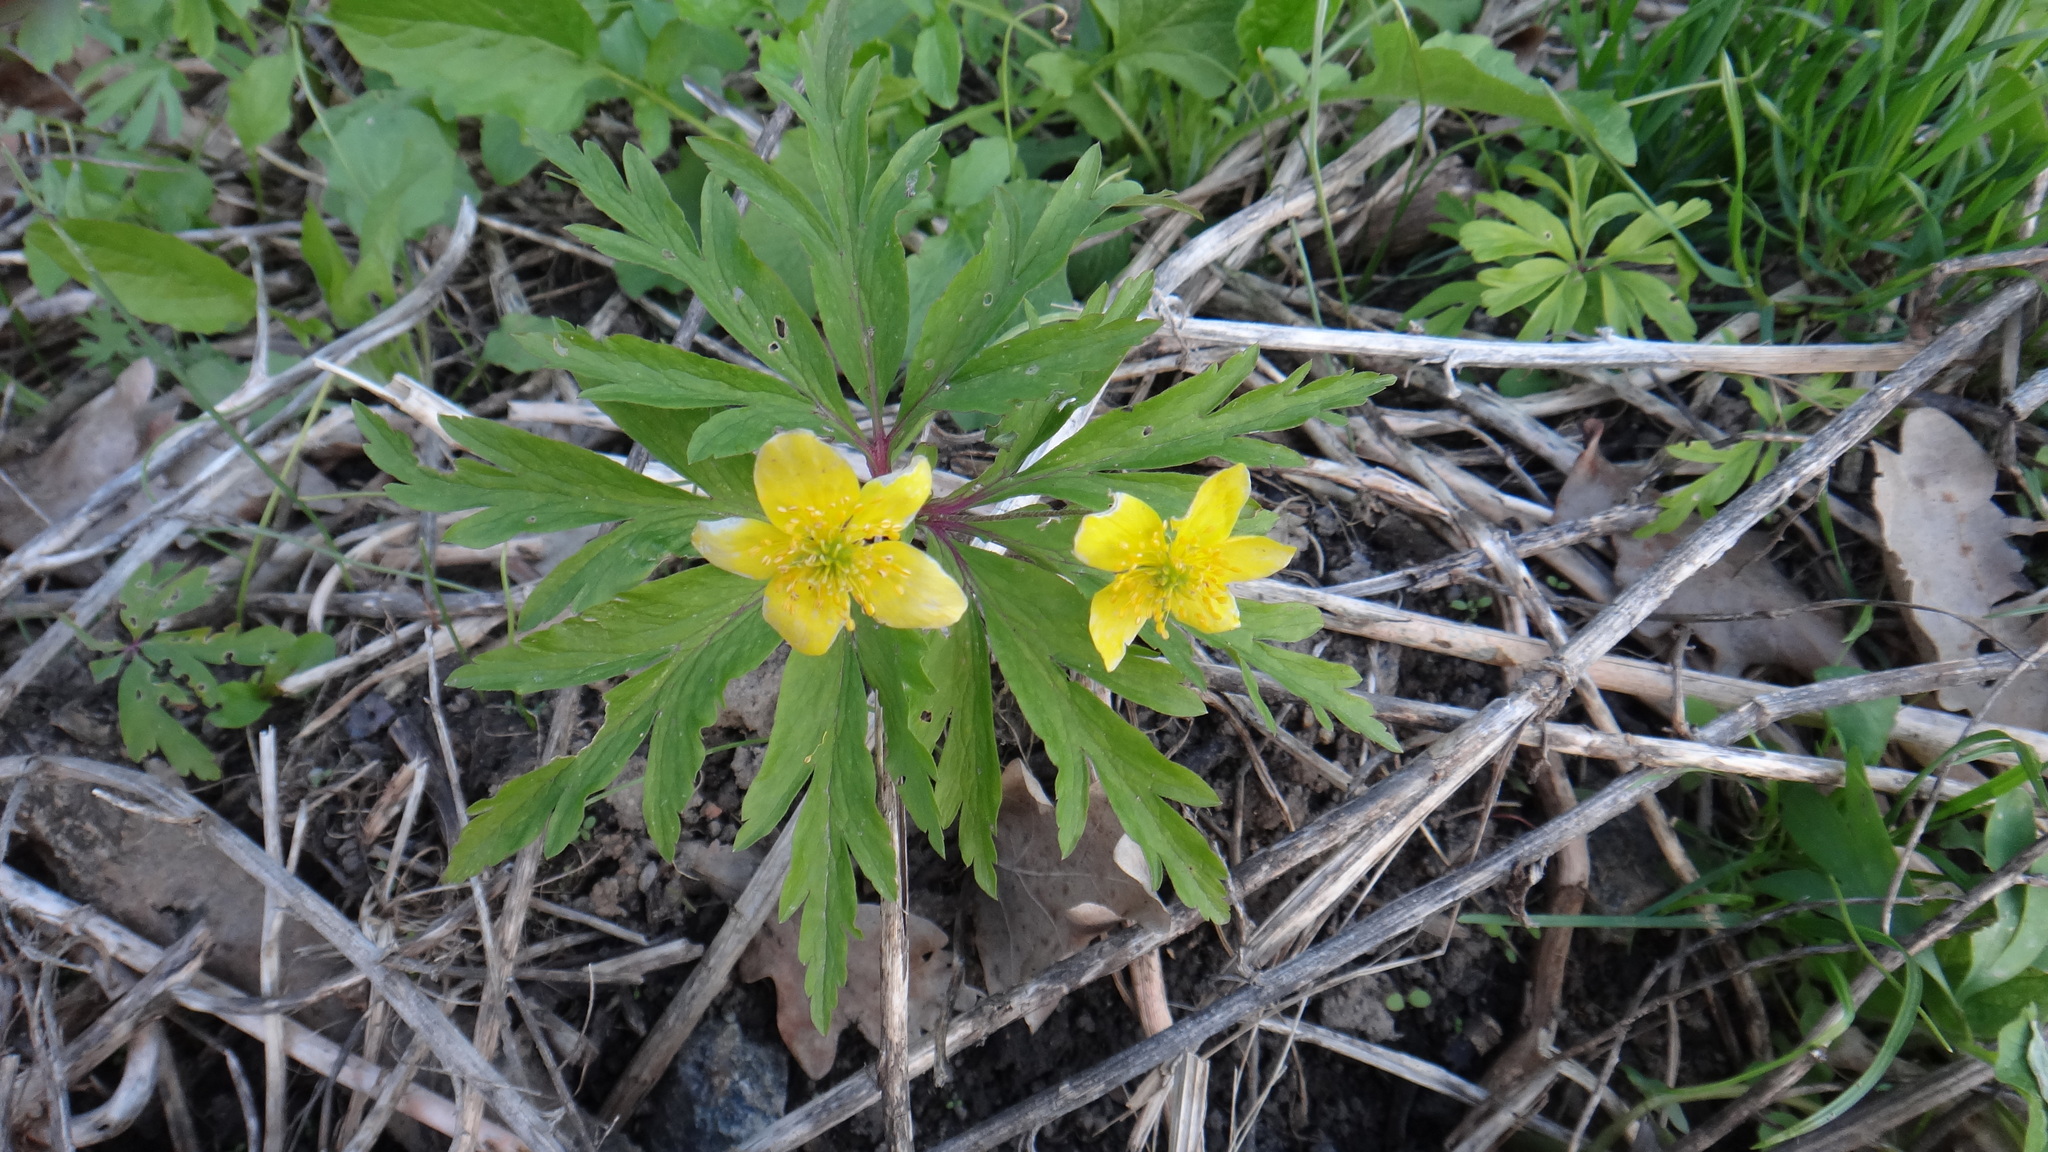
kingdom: Plantae
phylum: Tracheophyta
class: Magnoliopsida
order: Ranunculales
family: Ranunculaceae
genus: Anemone
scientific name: Anemone ranunculoides
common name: Yellow anemone
